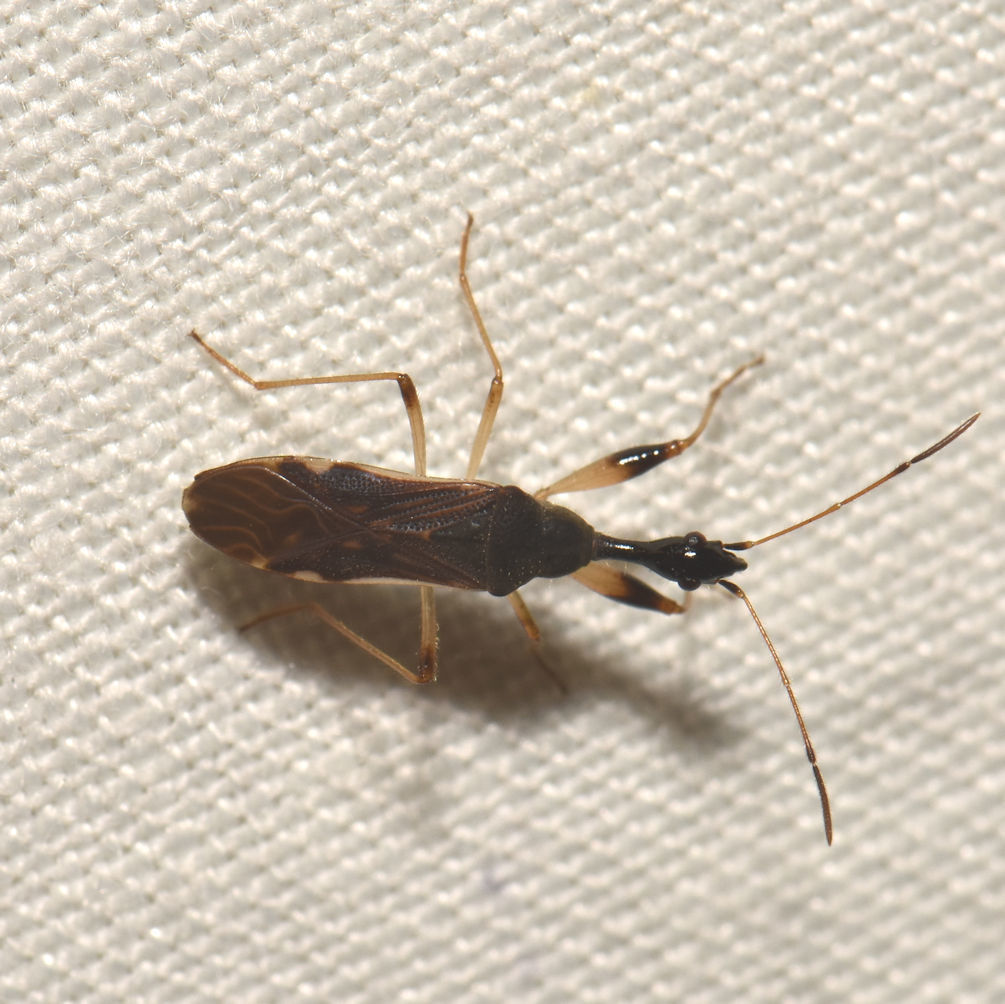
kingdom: Animalia
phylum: Arthropoda
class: Insecta
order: Hemiptera
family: Rhyparochromidae
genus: Myodocha
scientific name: Myodocha serripes
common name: Long-necked seed bug
